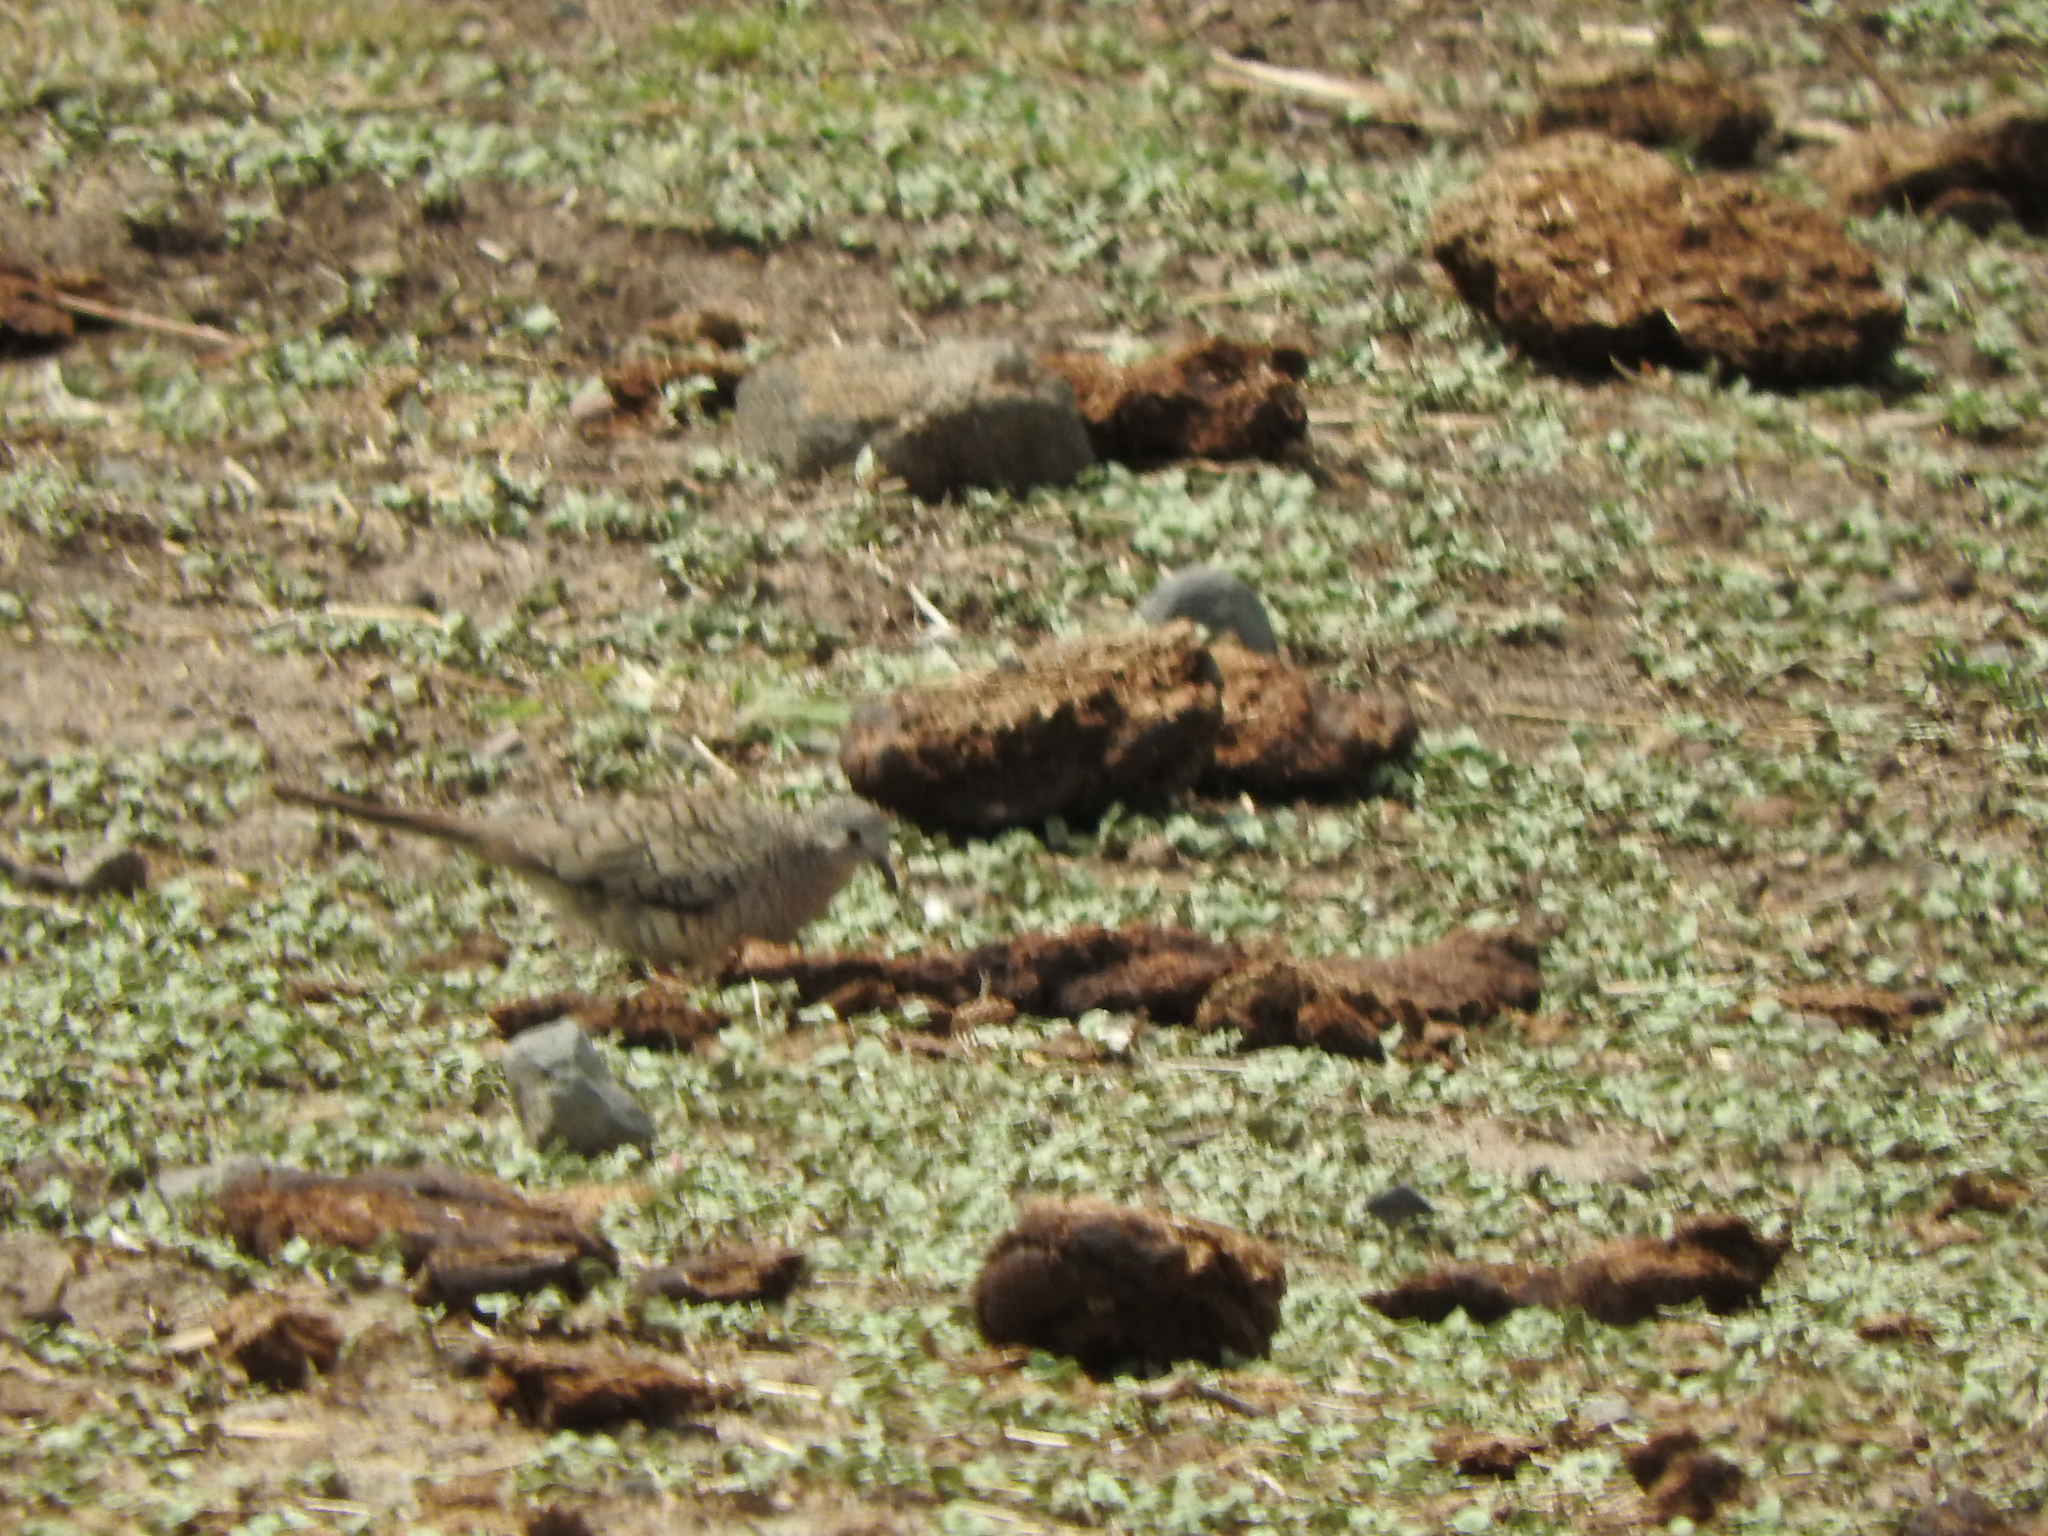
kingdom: Animalia
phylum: Chordata
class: Aves
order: Columbiformes
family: Columbidae
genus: Columbina
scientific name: Columbina inca
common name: Inca dove
